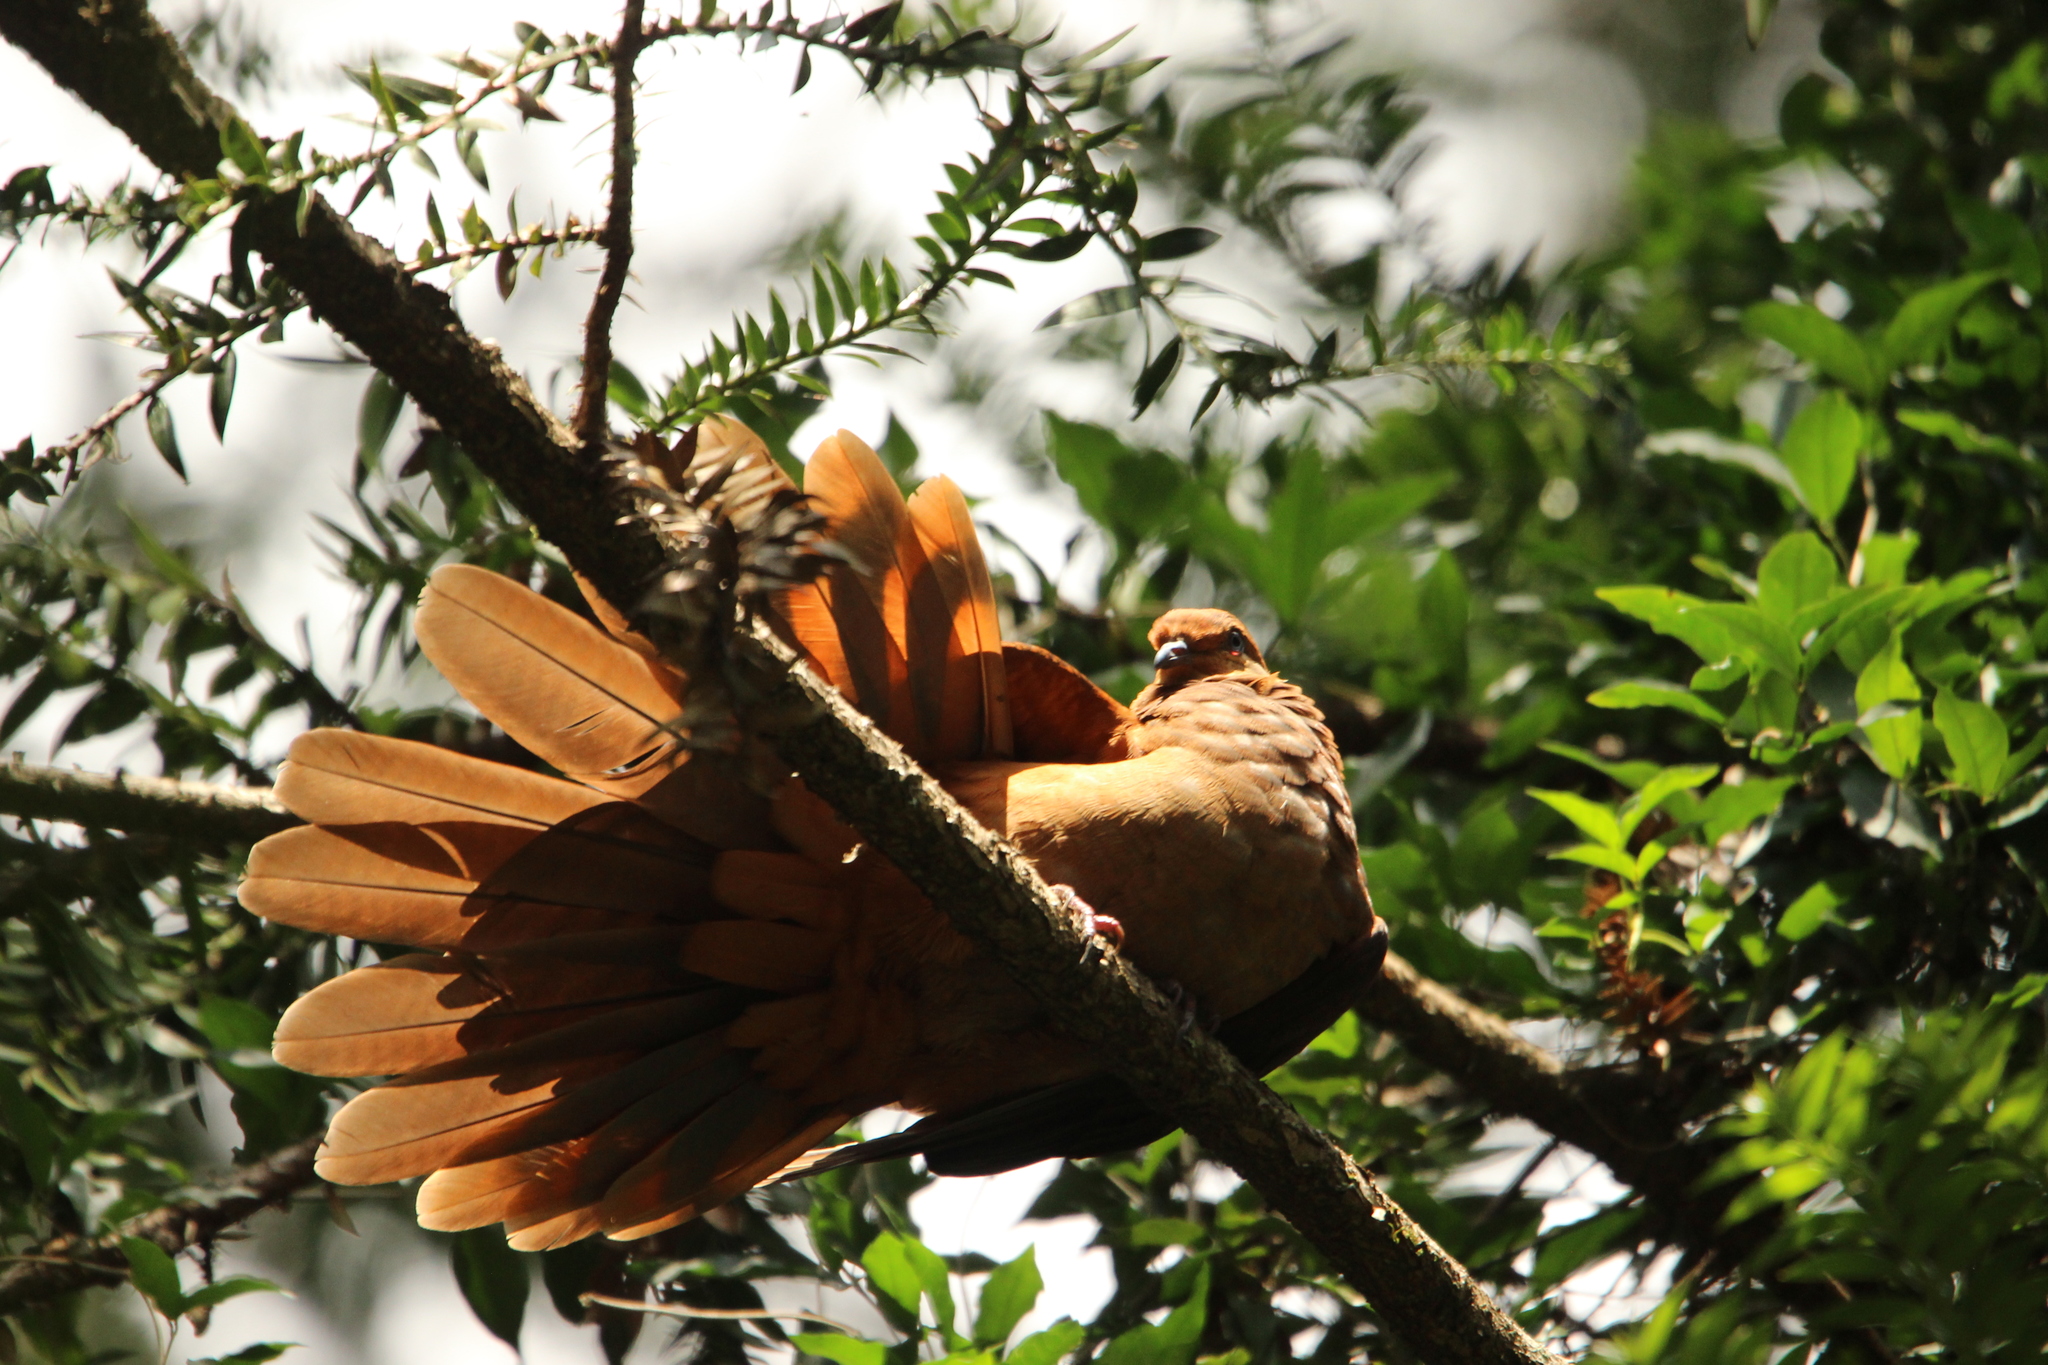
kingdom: Animalia
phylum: Chordata
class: Aves
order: Columbiformes
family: Columbidae
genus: Macropygia
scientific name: Macropygia phasianella
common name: Brown cuckoo-dove
